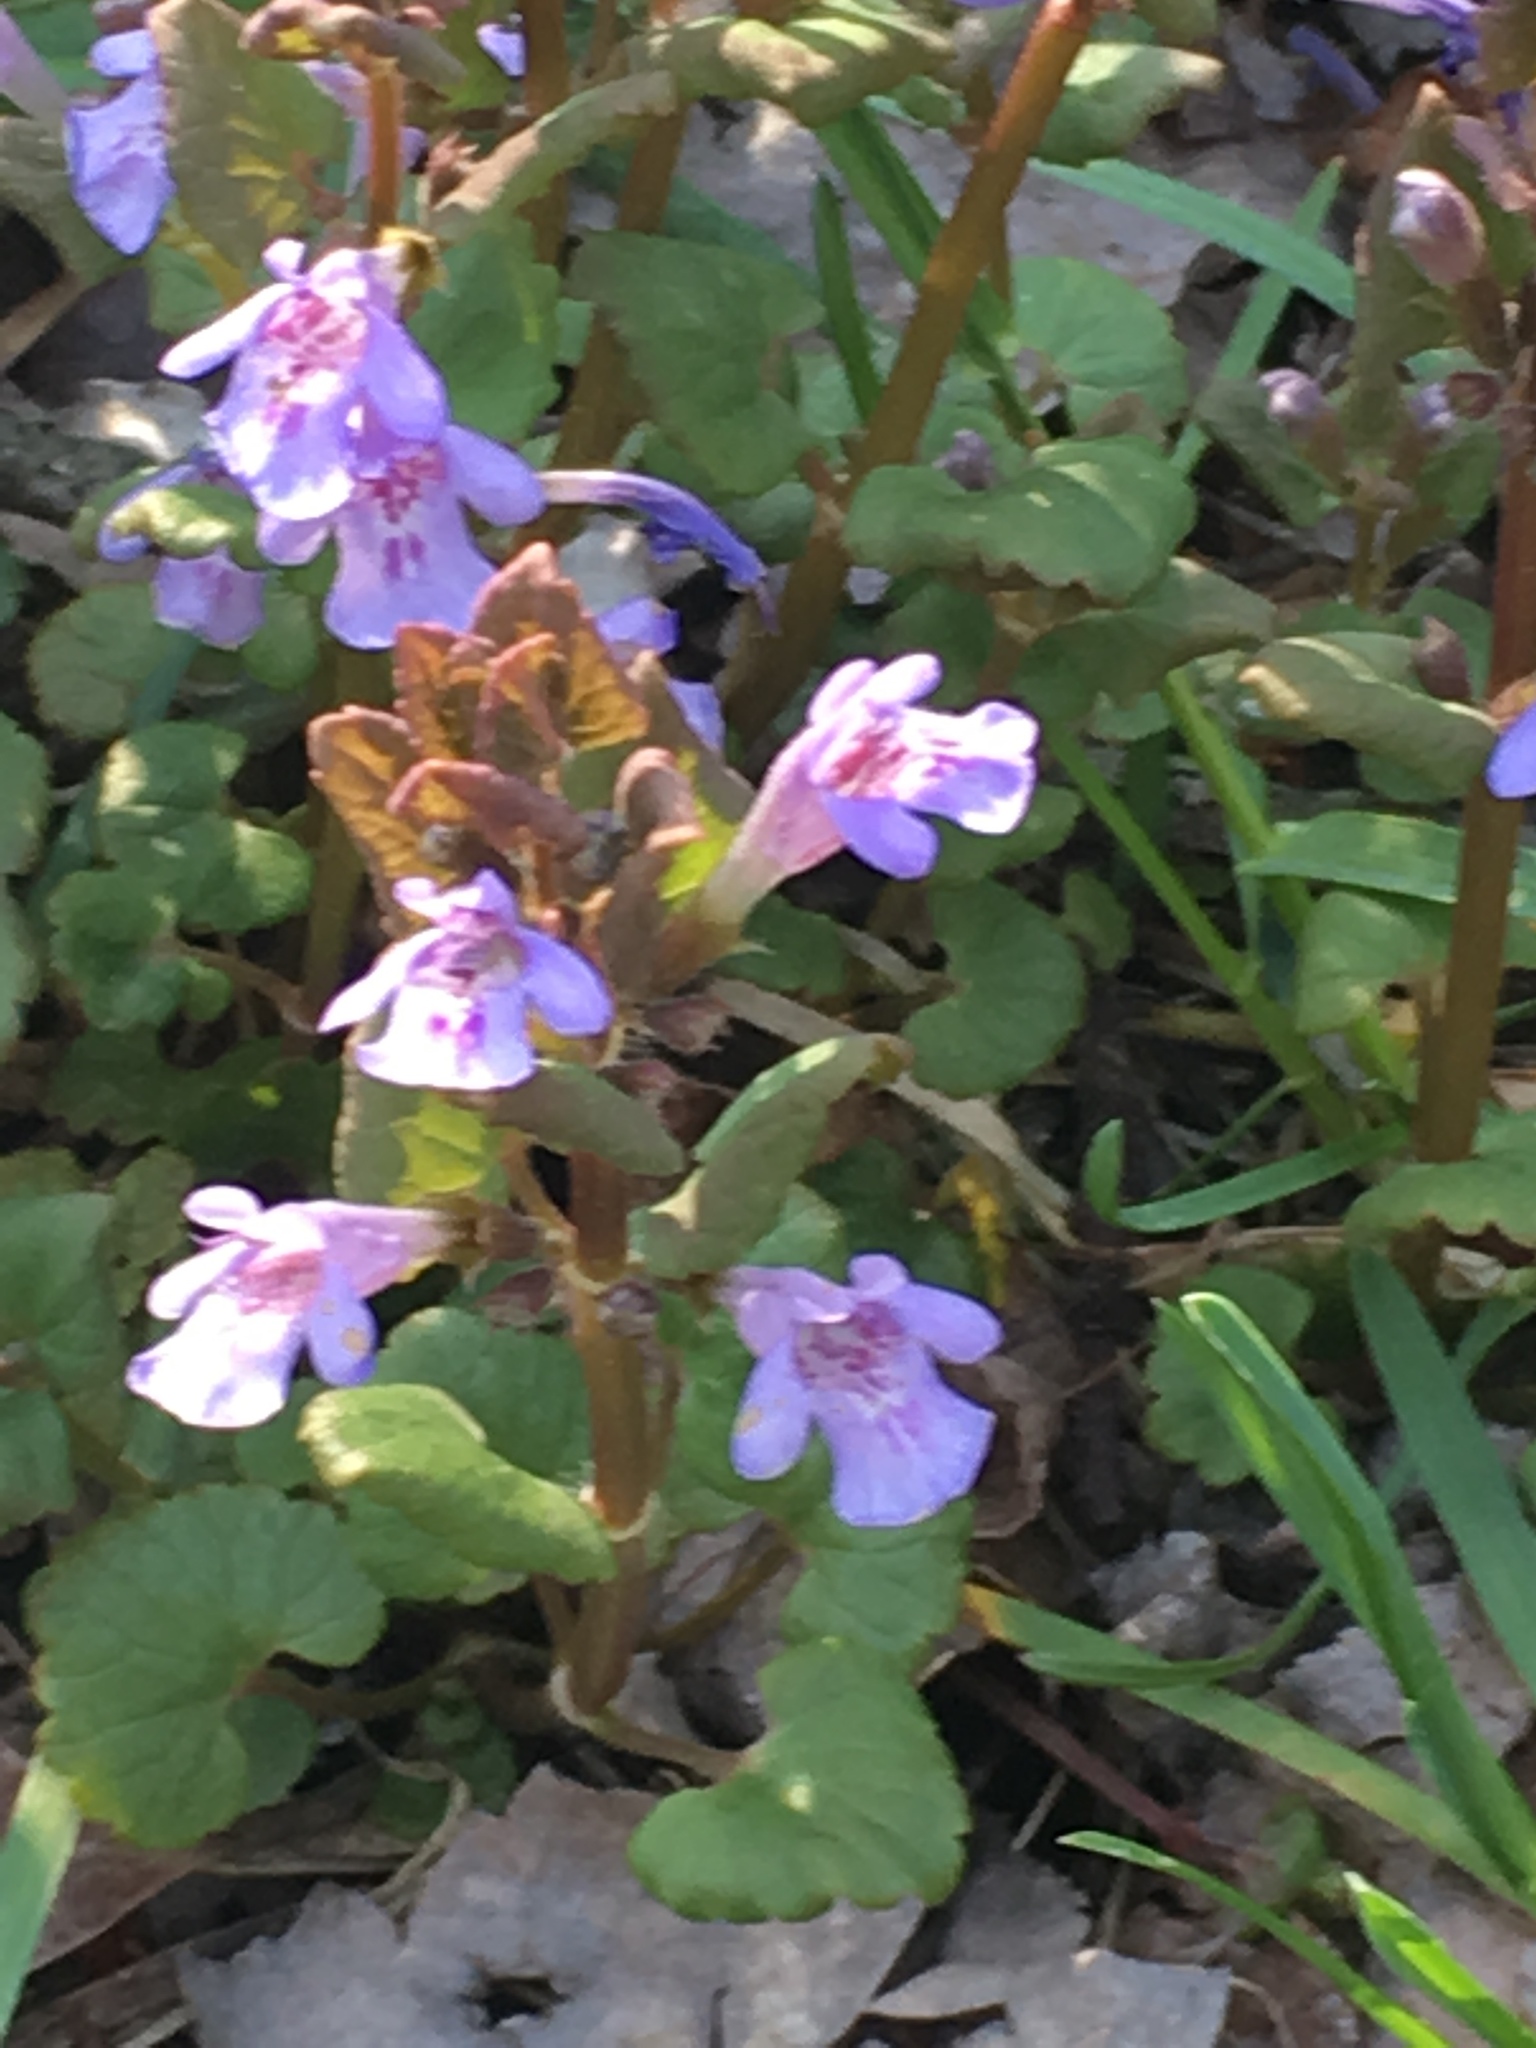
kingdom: Plantae
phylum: Tracheophyta
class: Magnoliopsida
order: Lamiales
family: Lamiaceae
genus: Glechoma
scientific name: Glechoma hederacea
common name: Ground ivy
